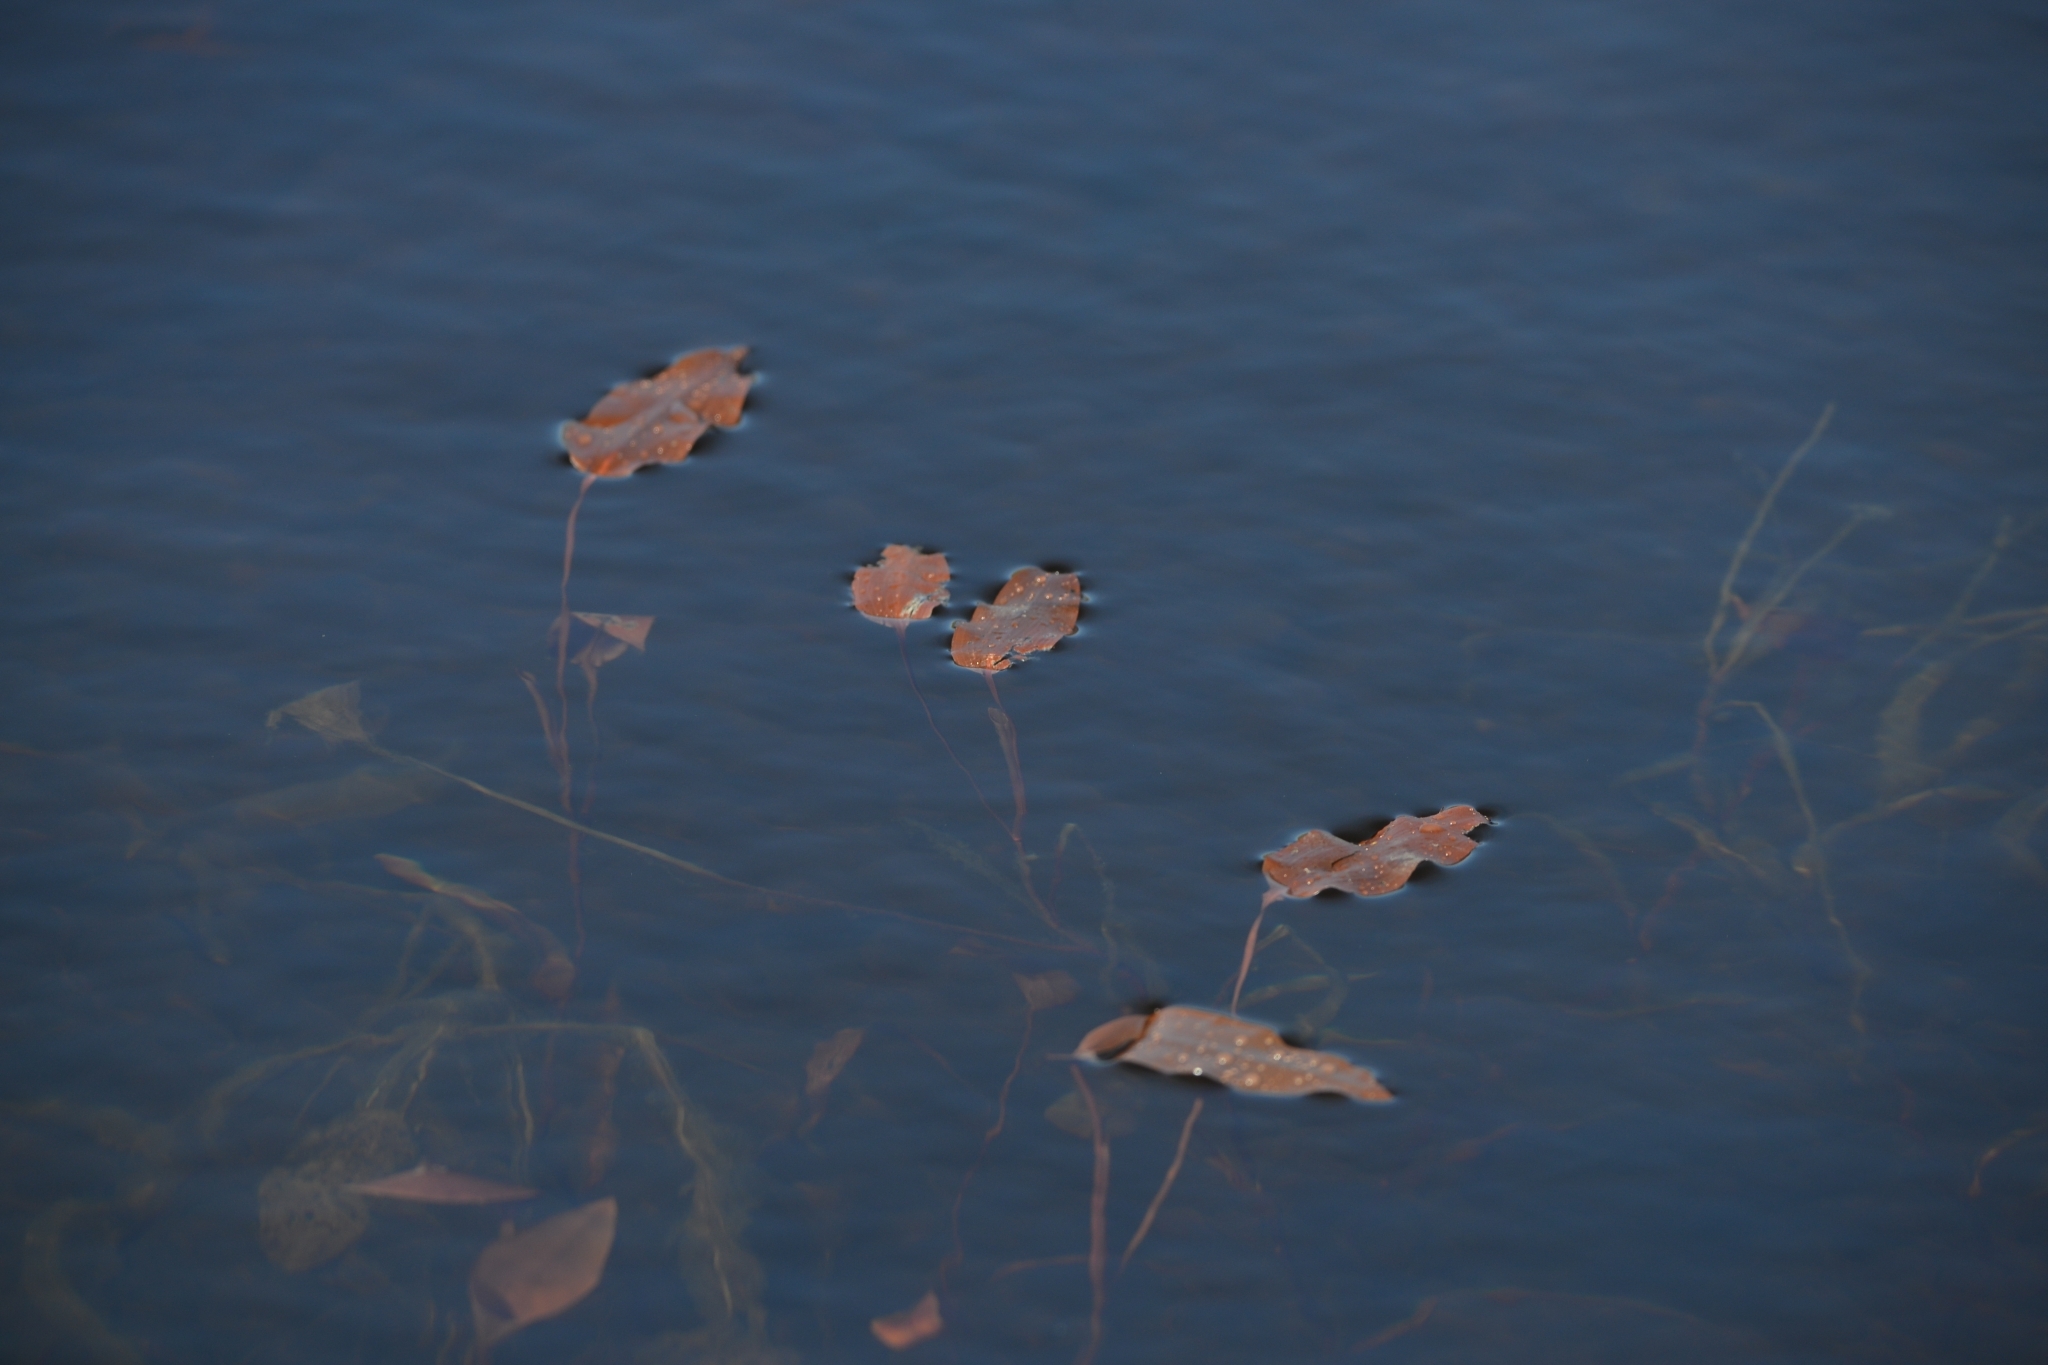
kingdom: Plantae
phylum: Tracheophyta
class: Liliopsida
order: Alismatales
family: Potamogetonaceae
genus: Potamogeton
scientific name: Potamogeton natans
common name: Broad-leaved pondweed
